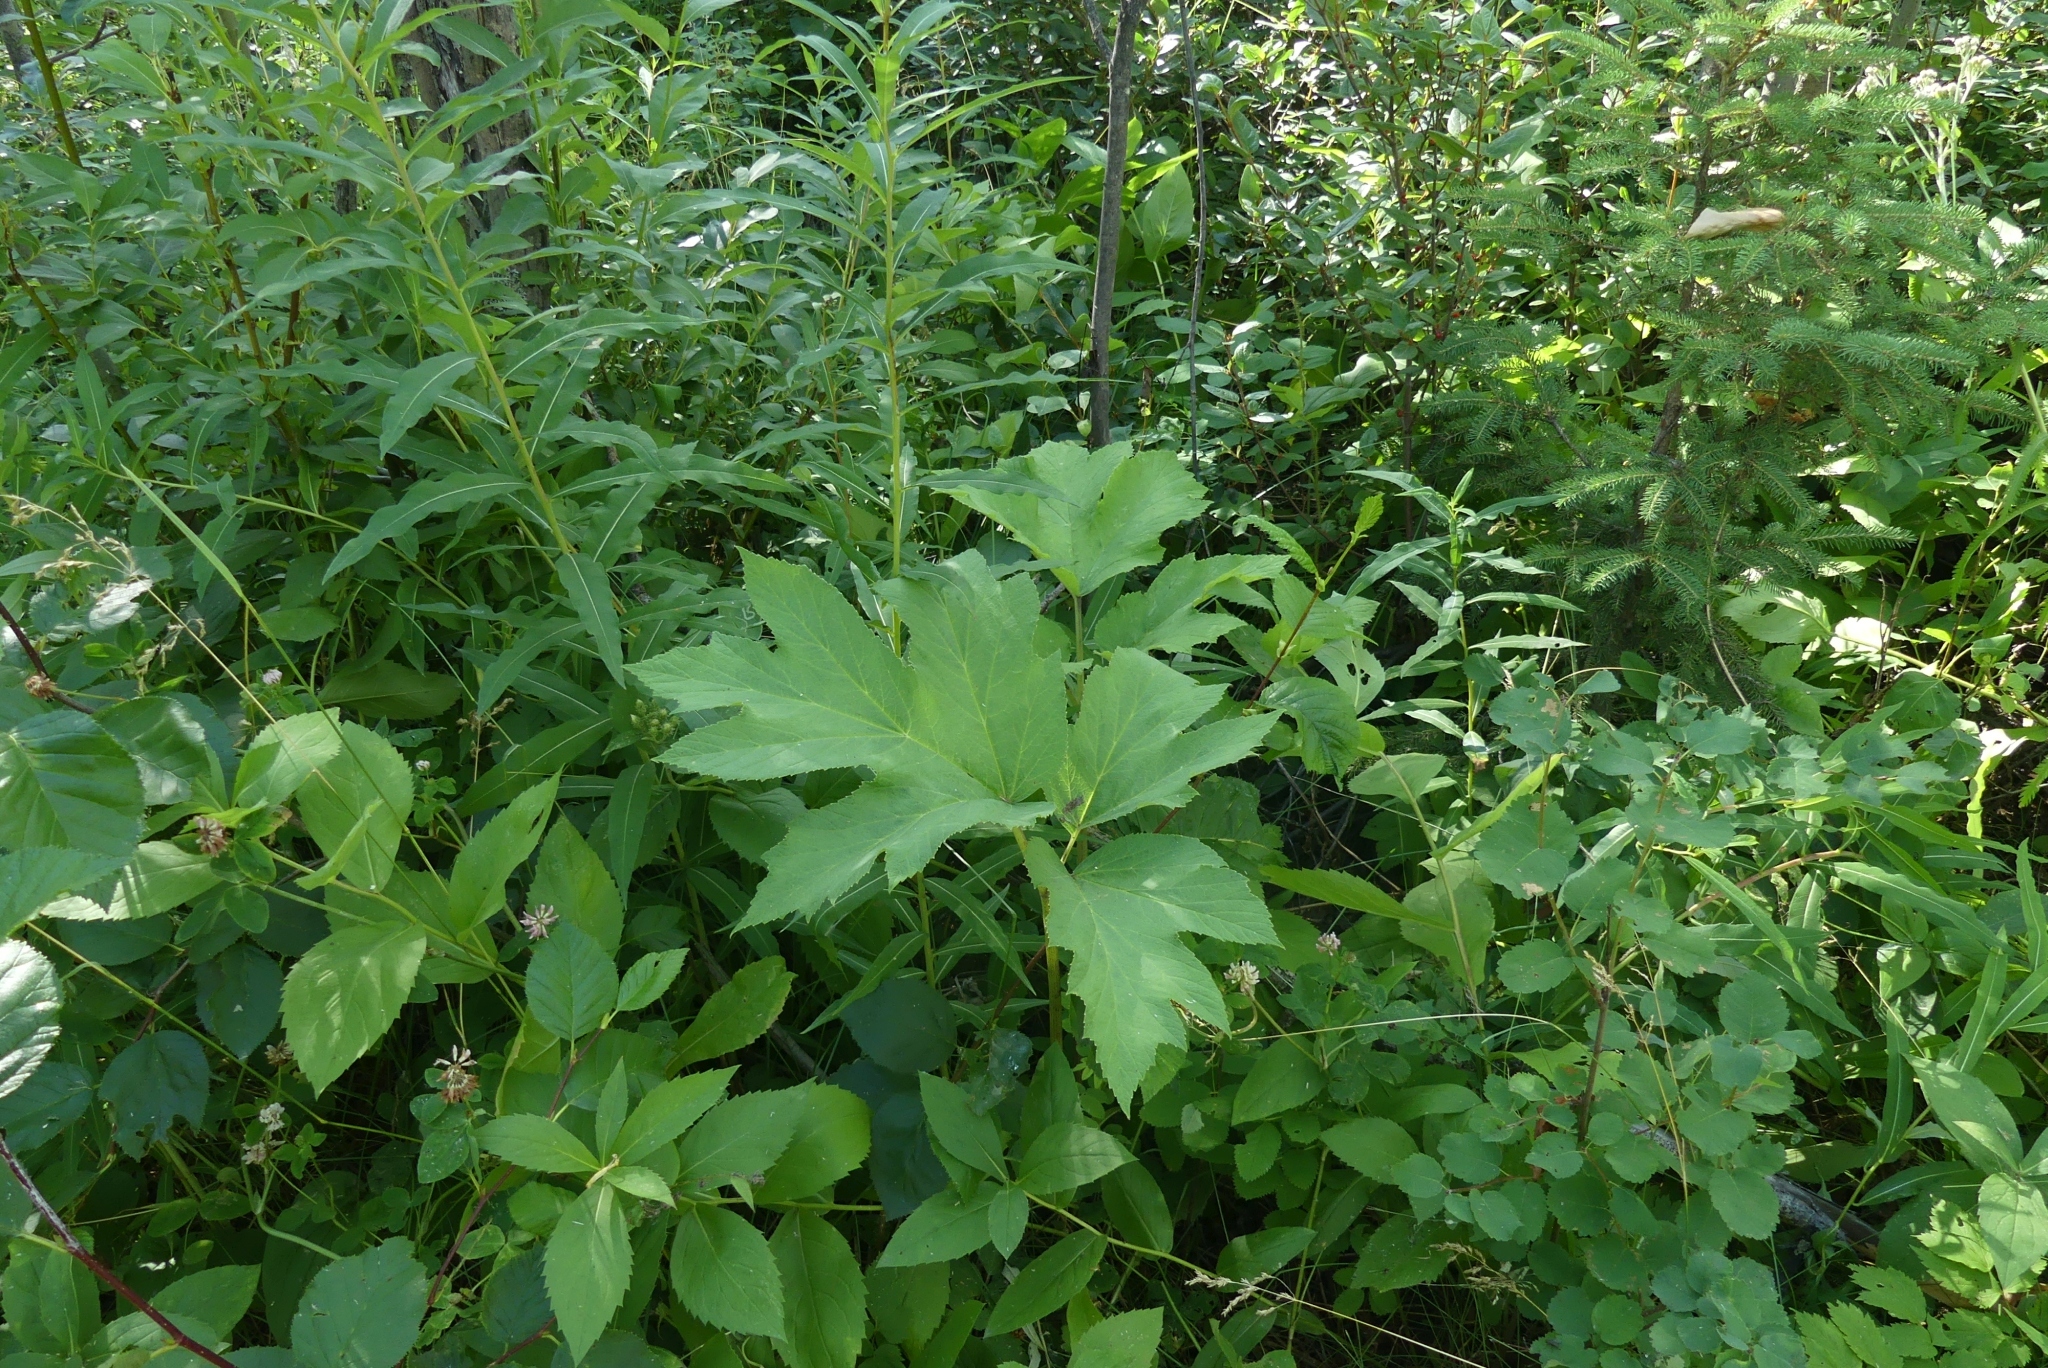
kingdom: Plantae
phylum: Tracheophyta
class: Magnoliopsida
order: Apiales
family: Apiaceae
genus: Heracleum
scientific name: Heracleum maximum
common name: American cow parsnip
